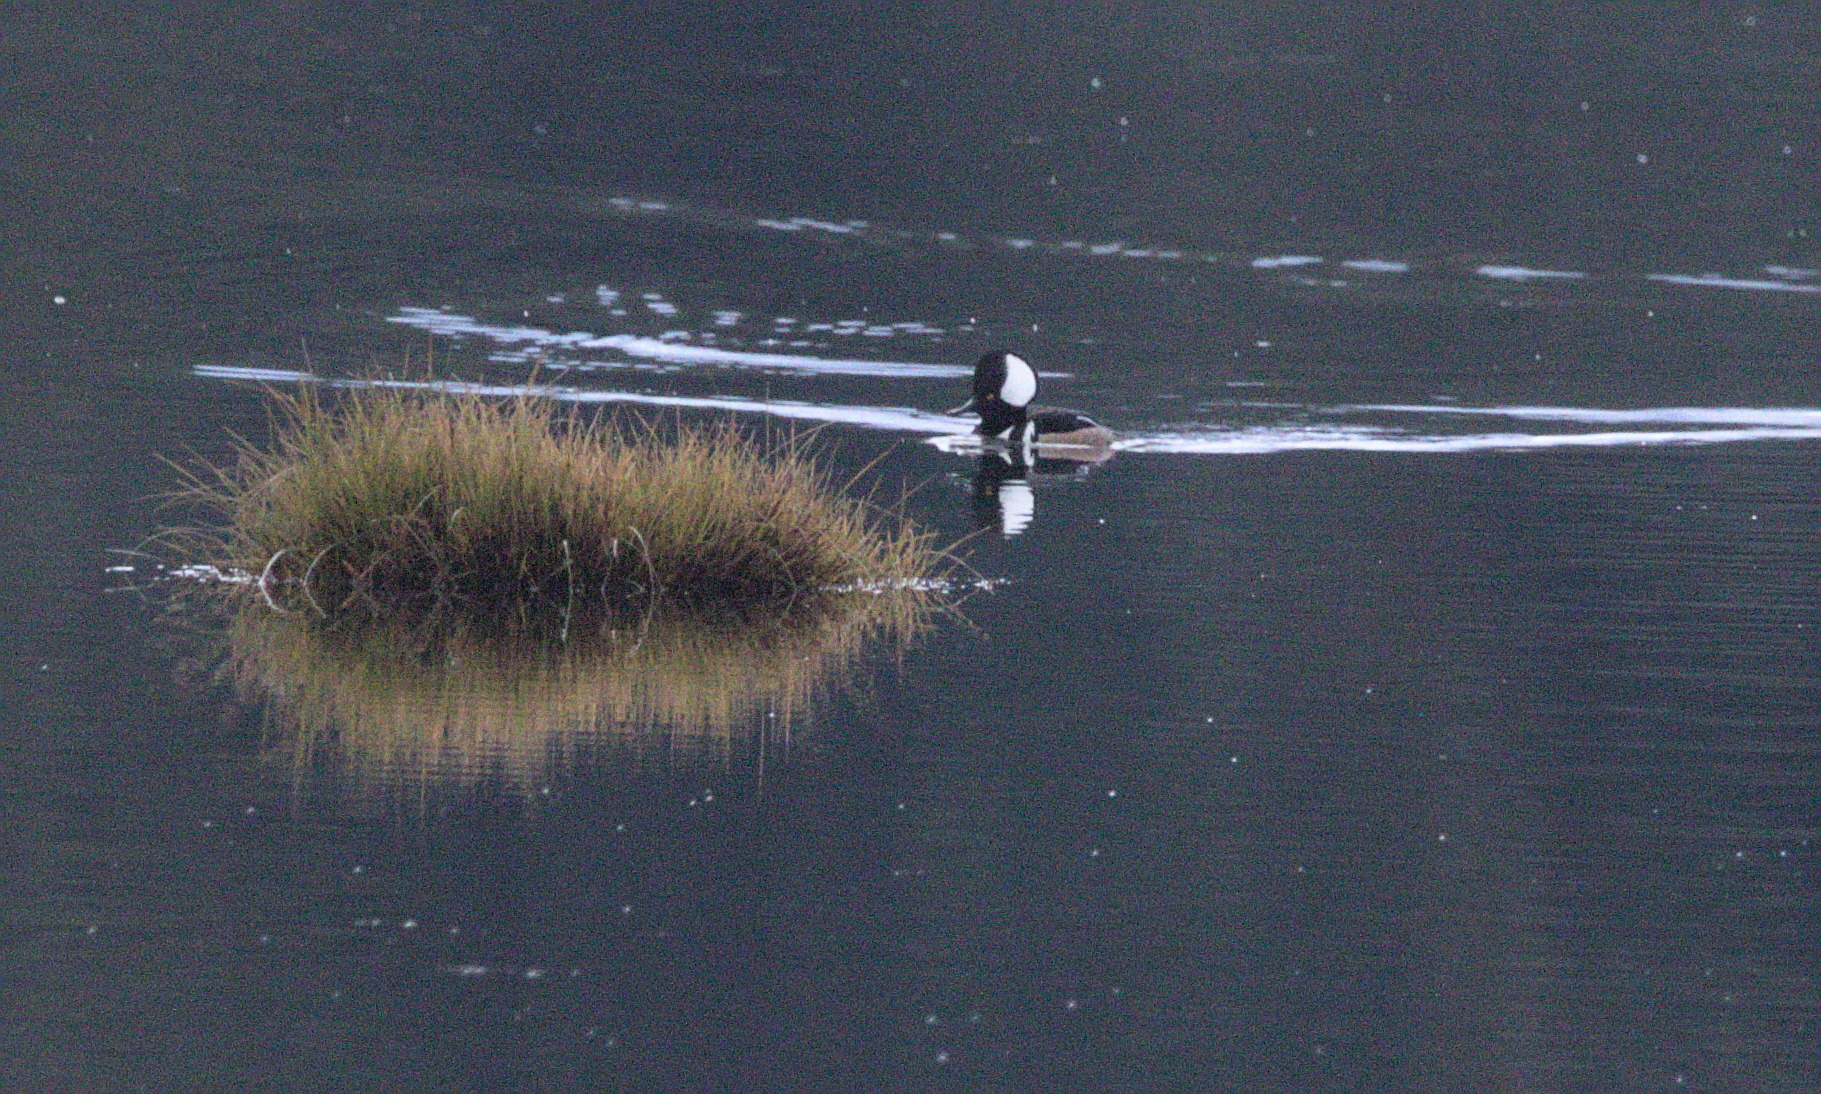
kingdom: Animalia
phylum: Chordata
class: Aves
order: Anseriformes
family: Anatidae
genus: Lophodytes
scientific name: Lophodytes cucullatus
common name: Hooded merganser
